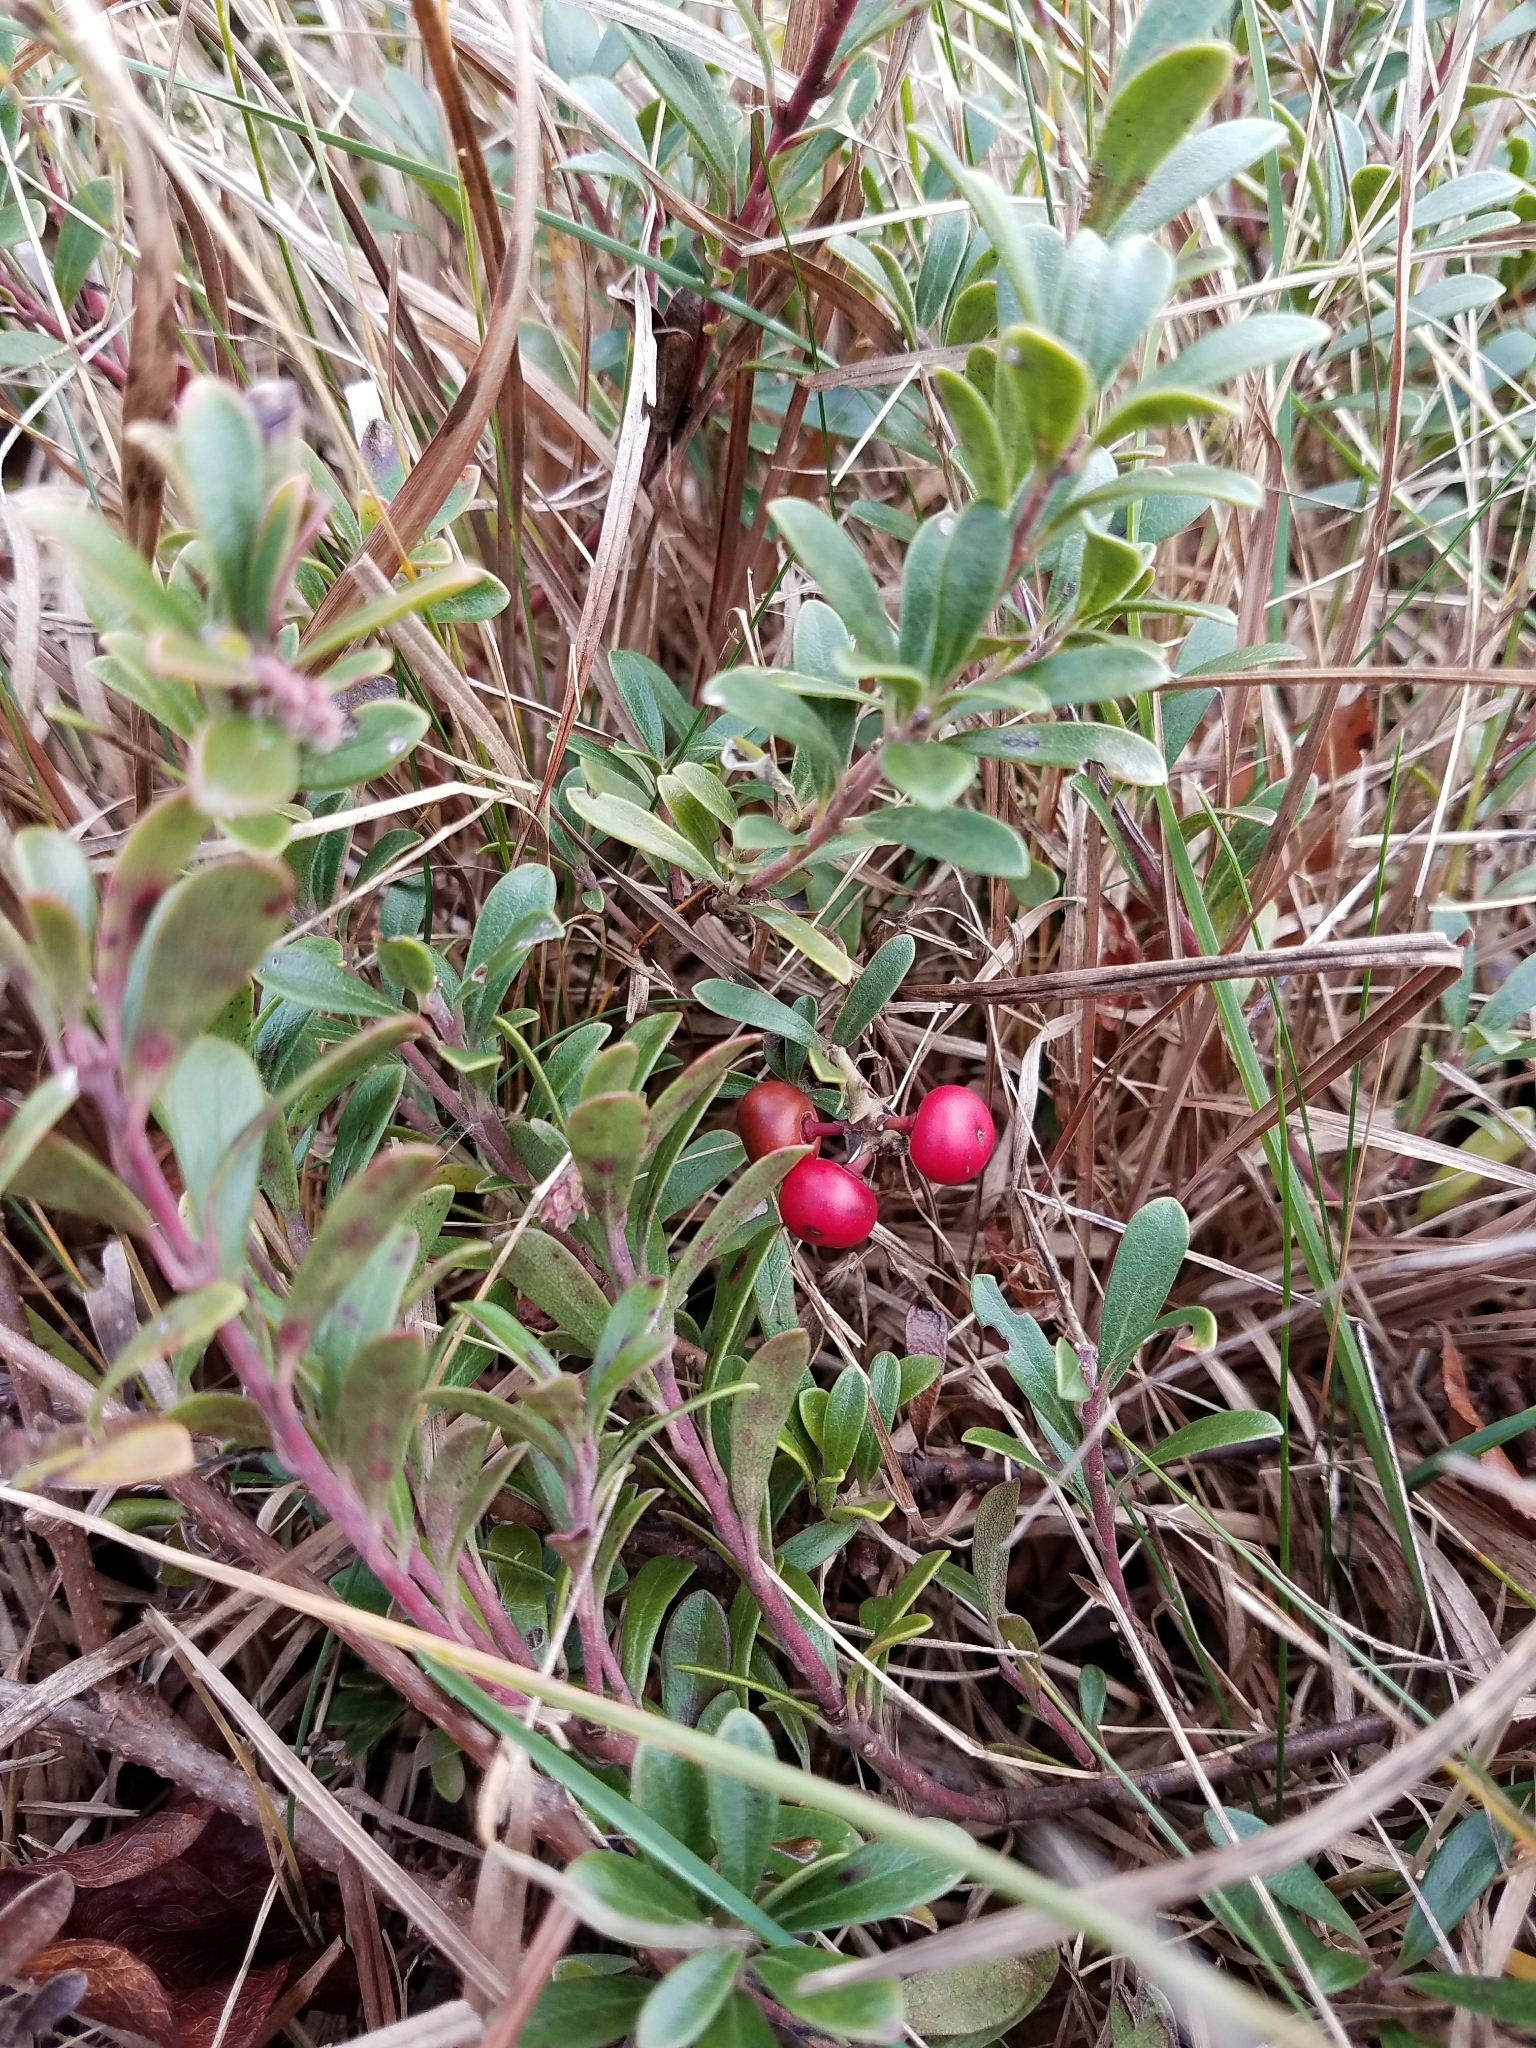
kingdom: Plantae
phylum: Tracheophyta
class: Magnoliopsida
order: Ericales
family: Ericaceae
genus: Arctostaphylos
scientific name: Arctostaphylos uva-ursi
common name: Bearberry
